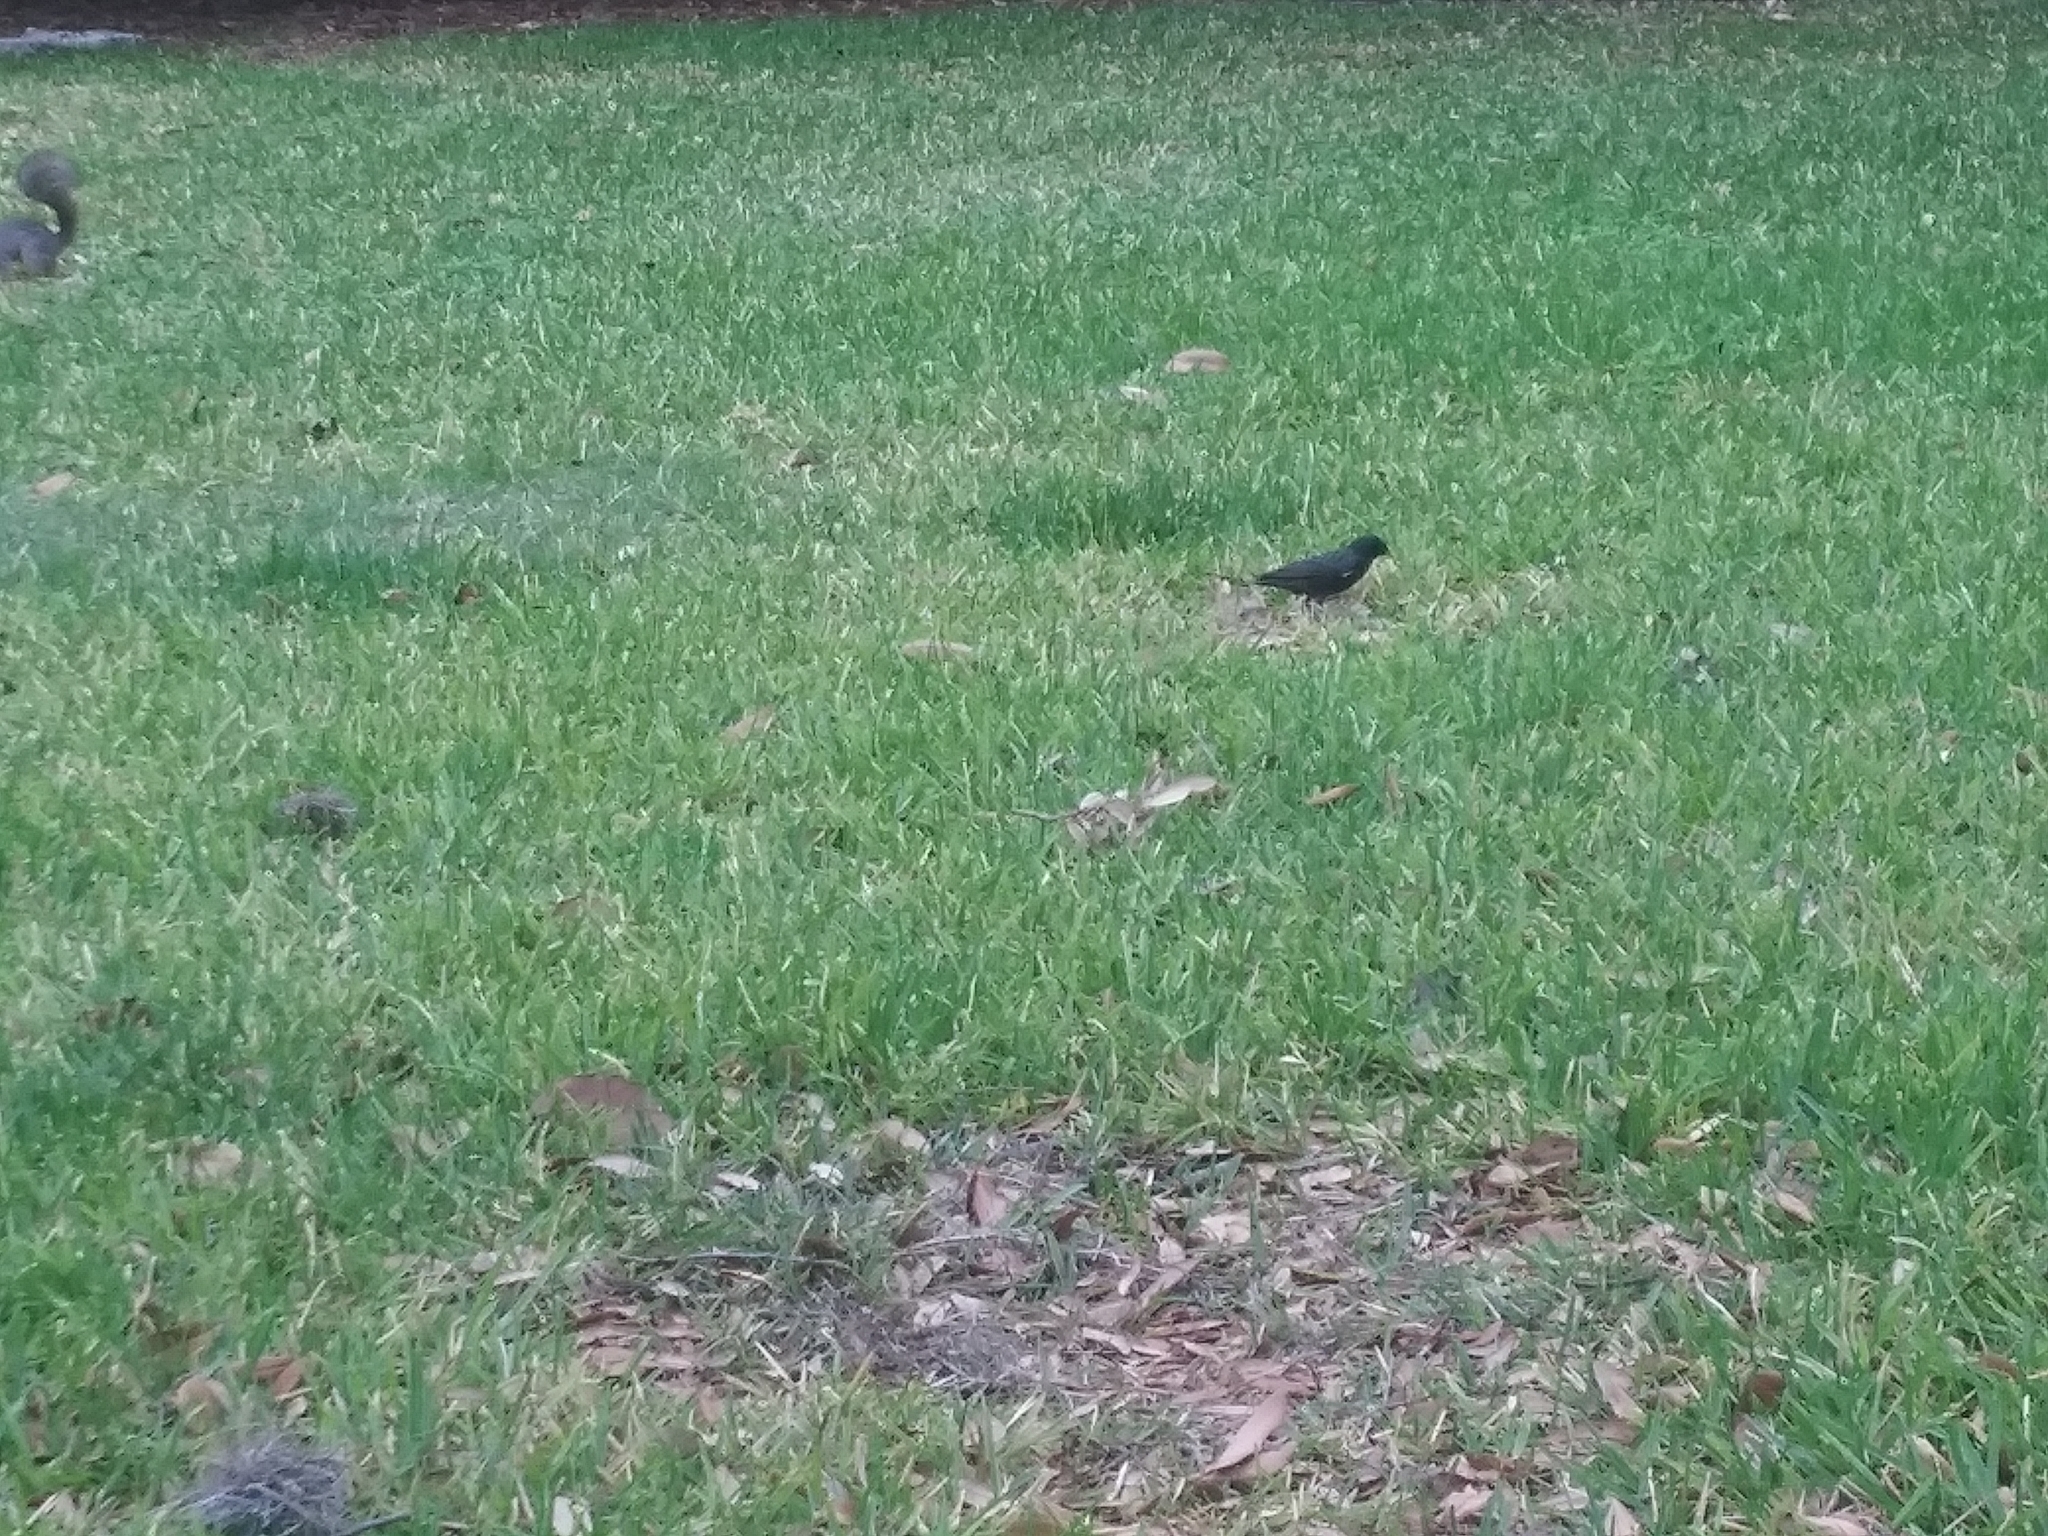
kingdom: Animalia
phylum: Chordata
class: Aves
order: Passeriformes
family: Sturnidae
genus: Sturnus
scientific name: Sturnus vulgaris
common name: Common starling
